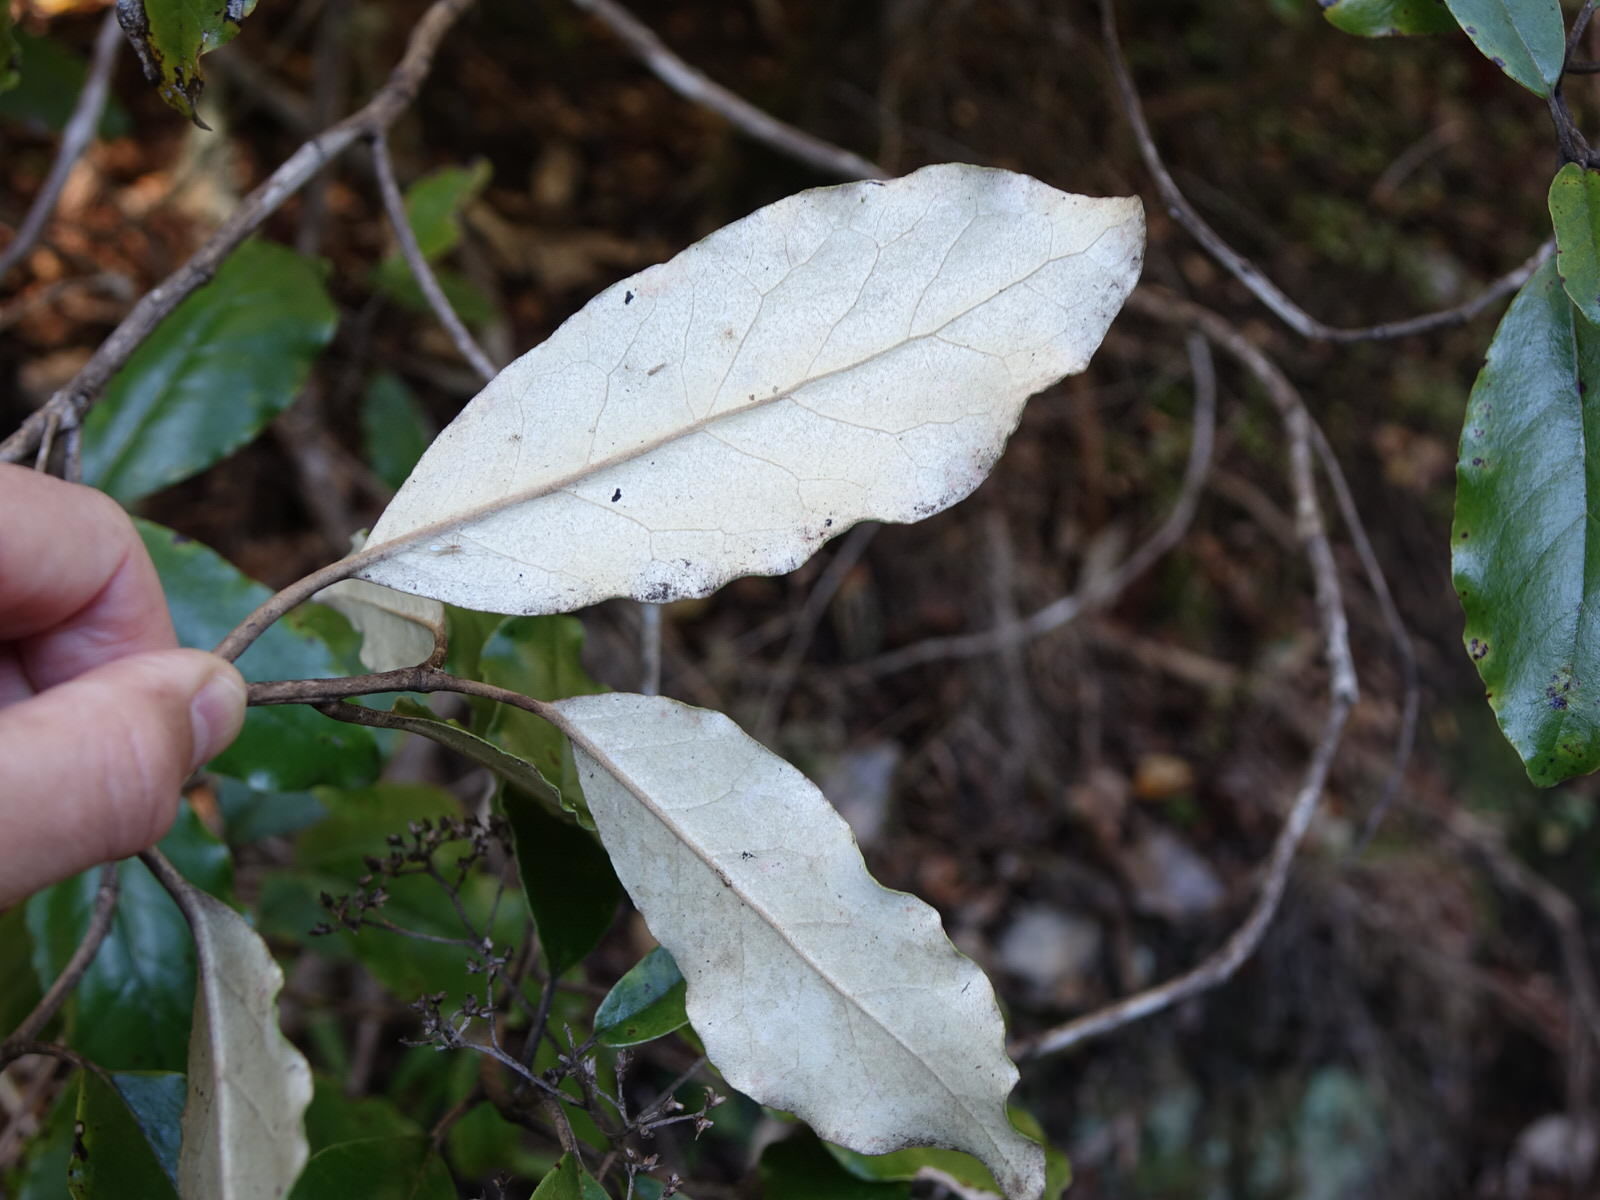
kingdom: Plantae
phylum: Tracheophyta
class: Magnoliopsida
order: Asterales
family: Asteraceae
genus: Olearia
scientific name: Olearia furfuracea
